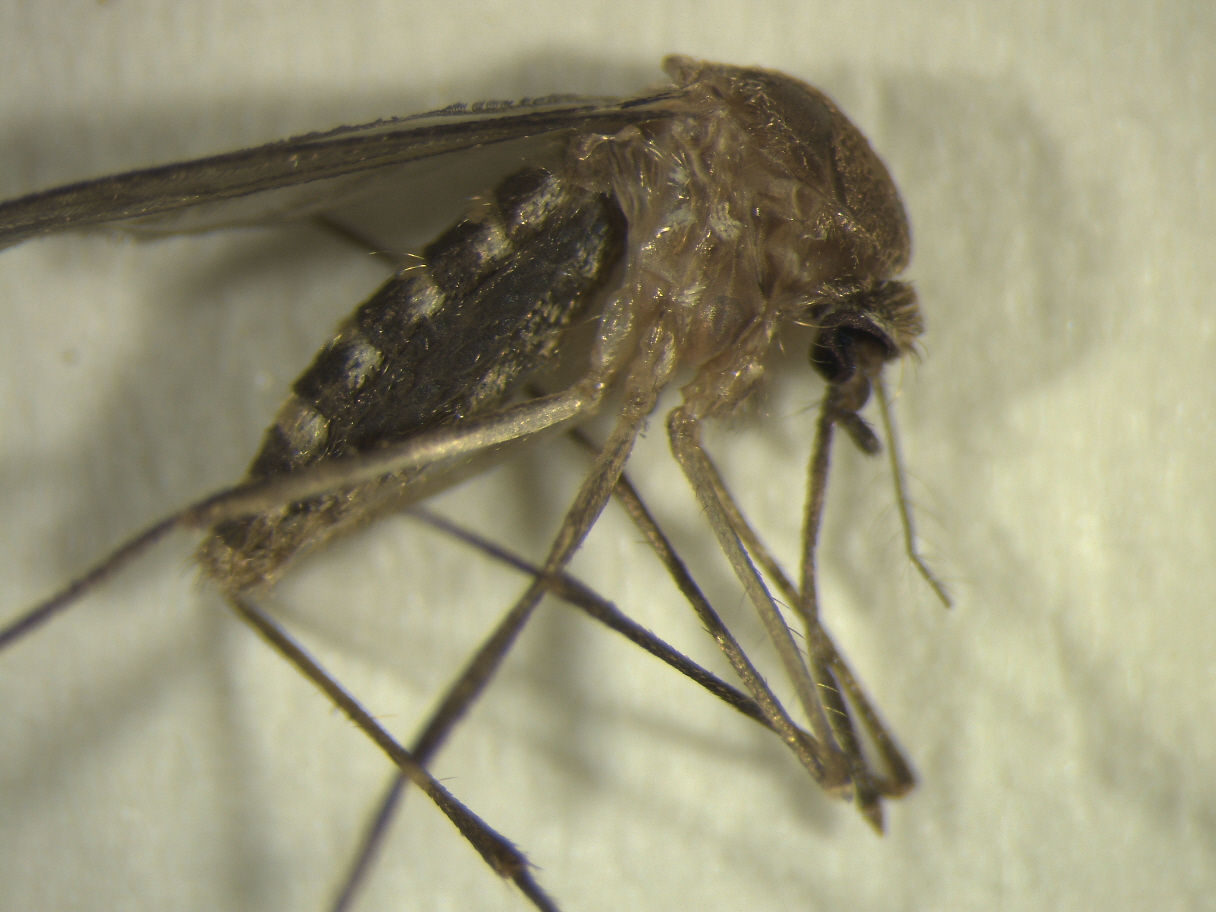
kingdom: Animalia
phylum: Arthropoda
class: Insecta
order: Diptera
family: Culicidae
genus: Culex
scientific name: Culex quinquefasciatus
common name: Southern house mosquito
